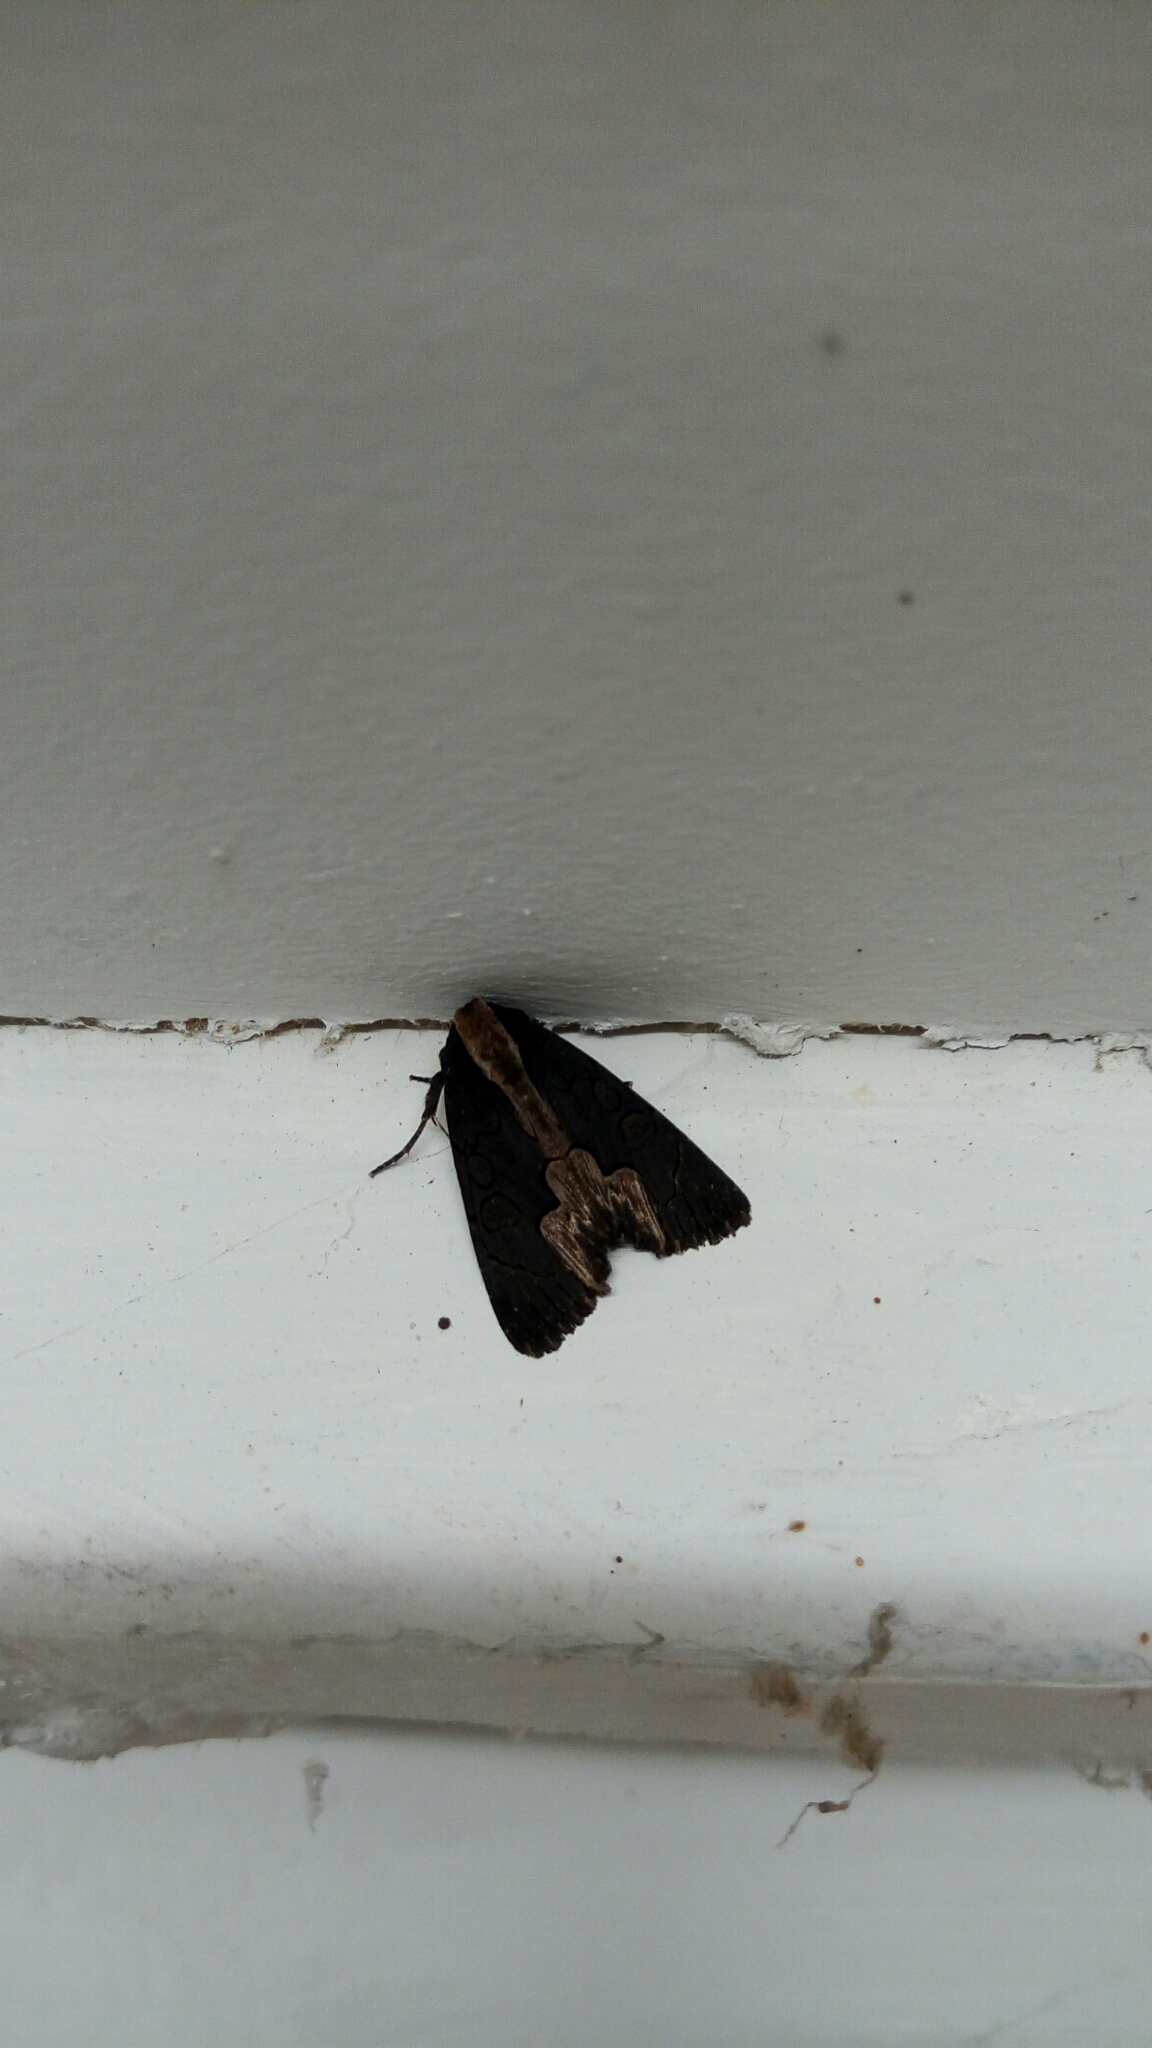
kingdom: Animalia
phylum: Arthropoda
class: Insecta
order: Lepidoptera
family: Noctuidae
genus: Dypterygia
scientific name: Dypterygia rozmani
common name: American bird's-wing
